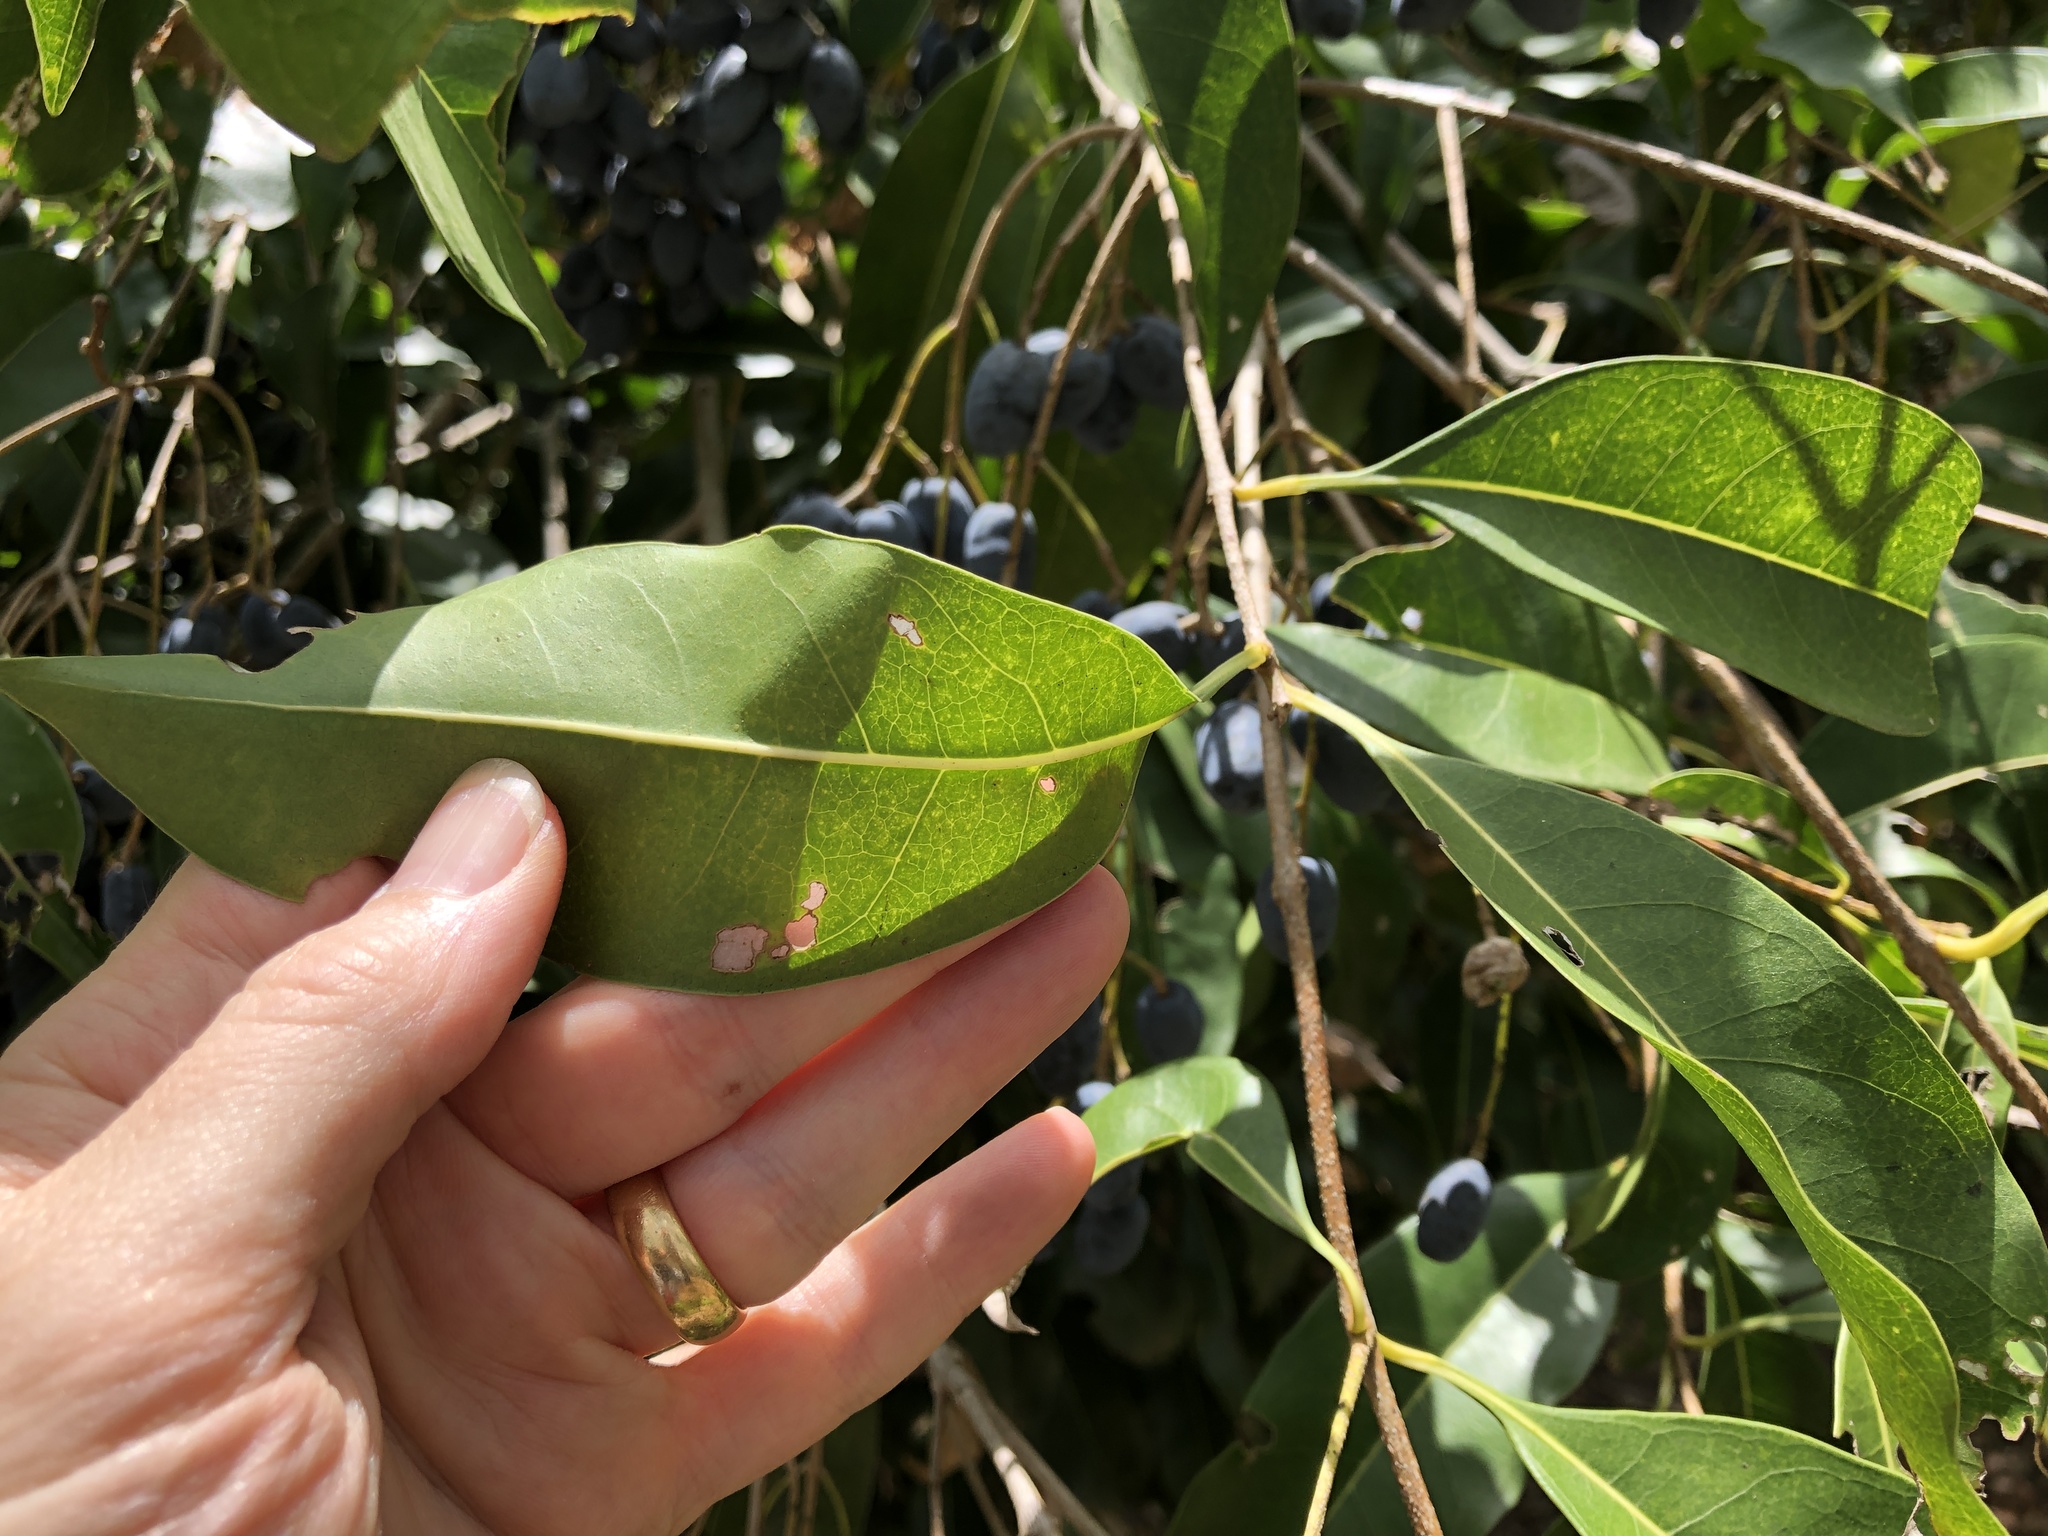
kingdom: Plantae
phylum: Tracheophyta
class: Magnoliopsida
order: Lamiales
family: Oleaceae
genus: Chionanthus
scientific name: Chionanthus ramiflorus
